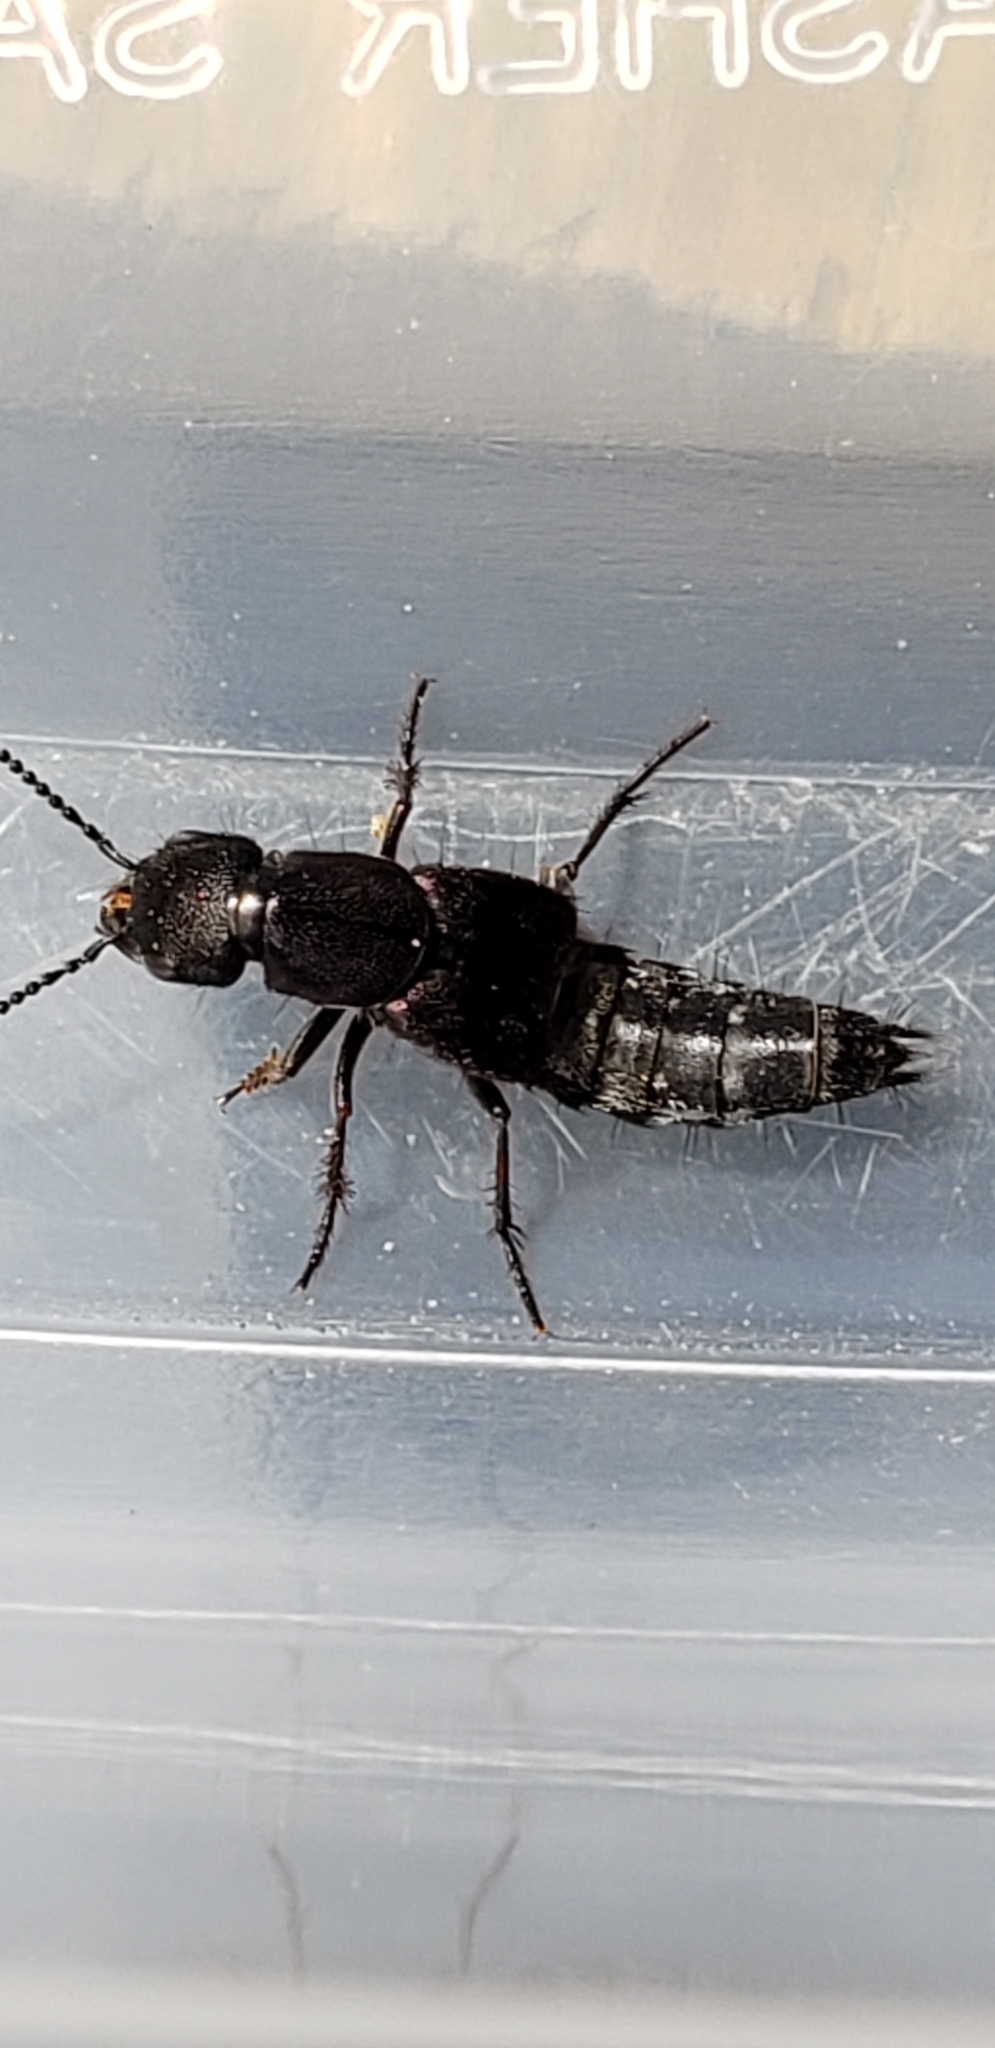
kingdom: Animalia
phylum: Arthropoda
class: Insecta
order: Coleoptera
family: Staphylinidae
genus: Platydracus
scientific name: Platydracus violaceus
